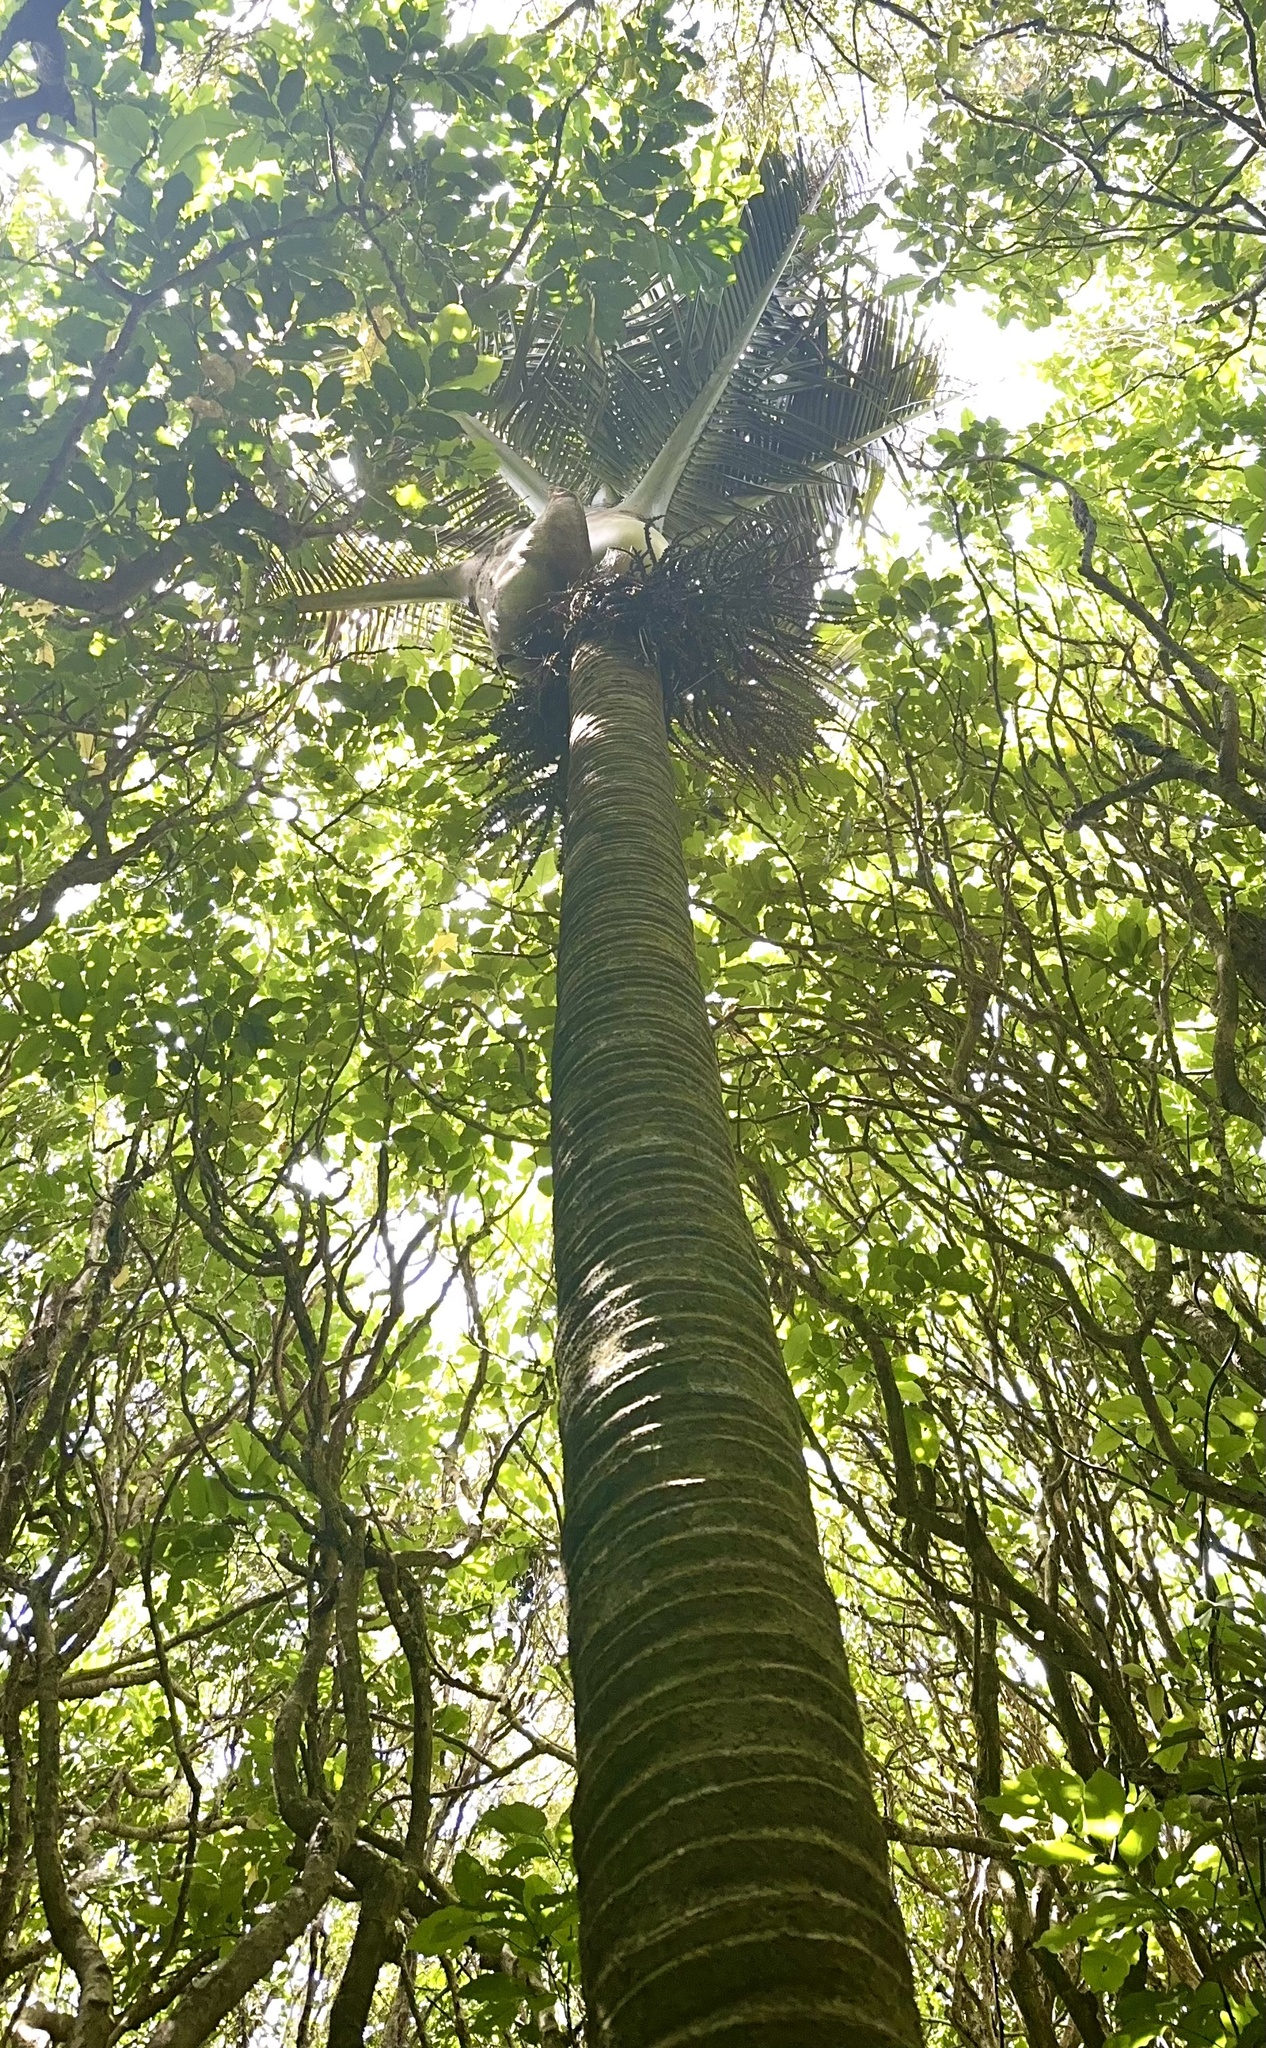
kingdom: Plantae
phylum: Tracheophyta
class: Liliopsida
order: Arecales
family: Arecaceae
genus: Rhopalostylis
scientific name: Rhopalostylis sapida
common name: Feather-duster palm
